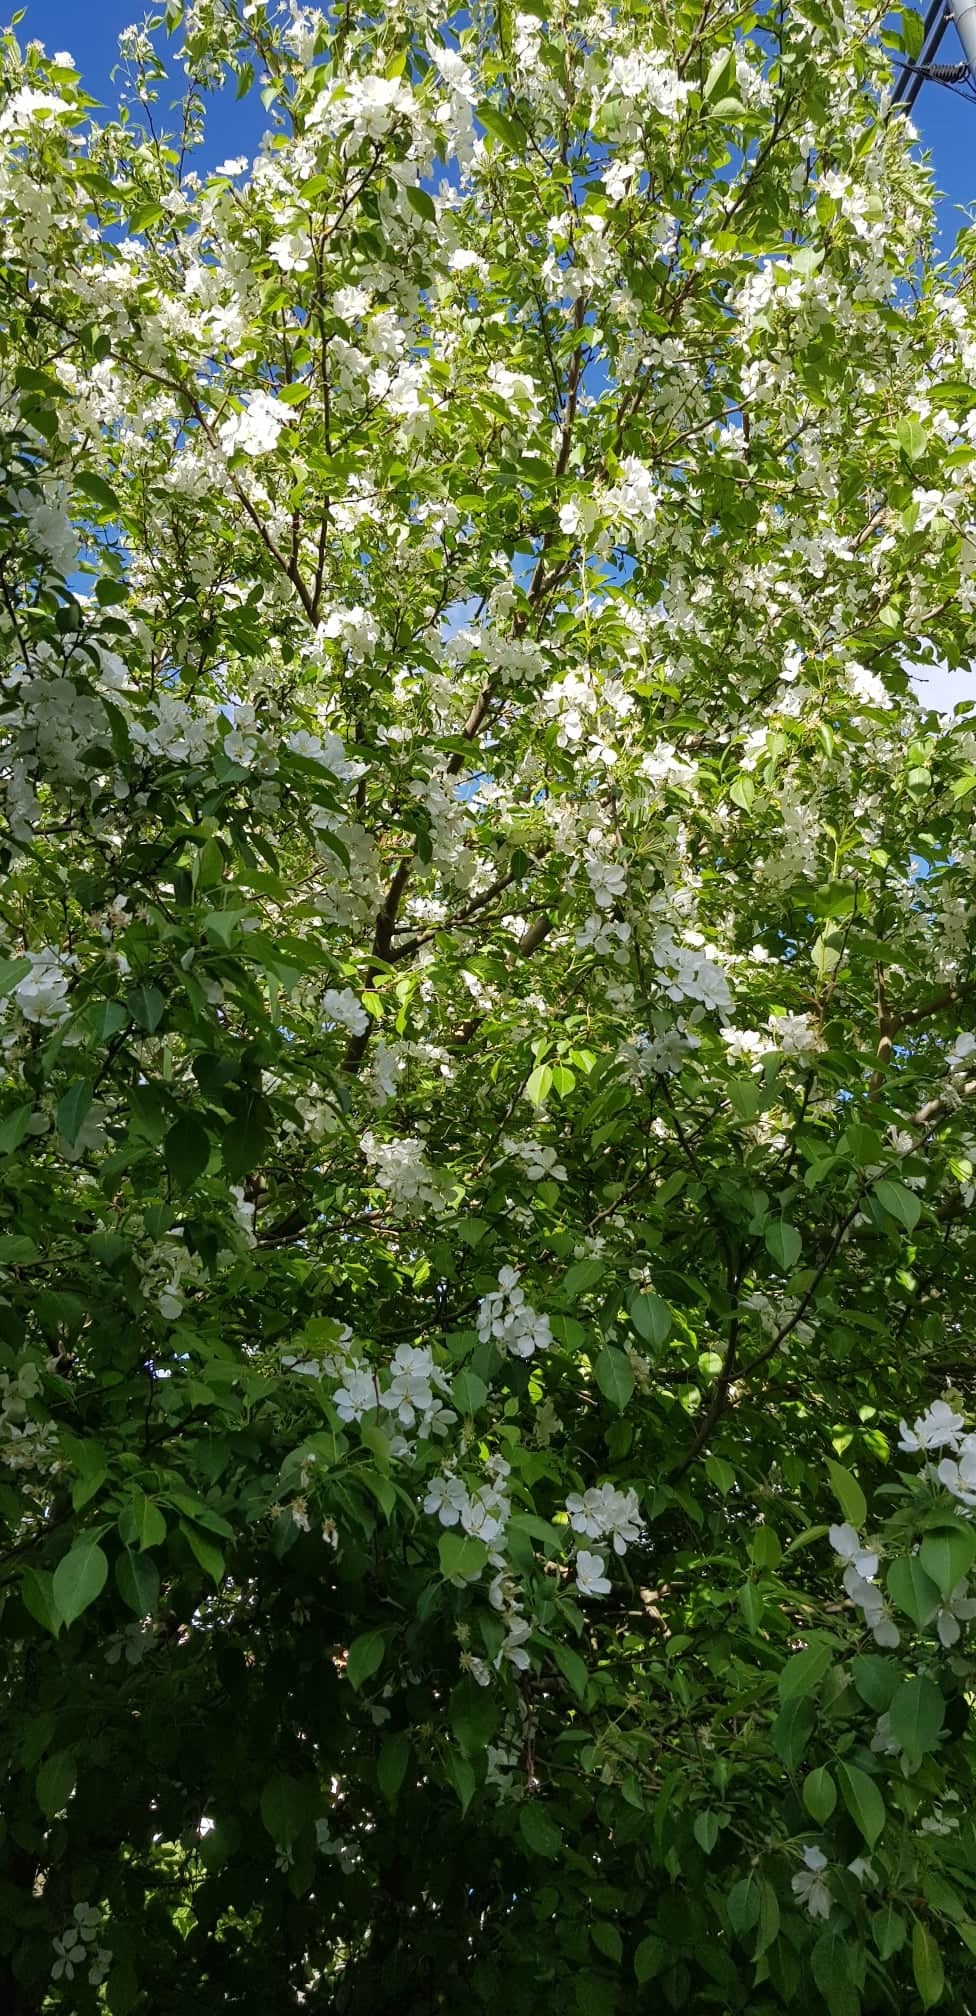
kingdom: Plantae
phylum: Tracheophyta
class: Magnoliopsida
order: Rosales
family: Rosaceae
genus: Malus
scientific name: Malus baccata
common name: Siberian crab
